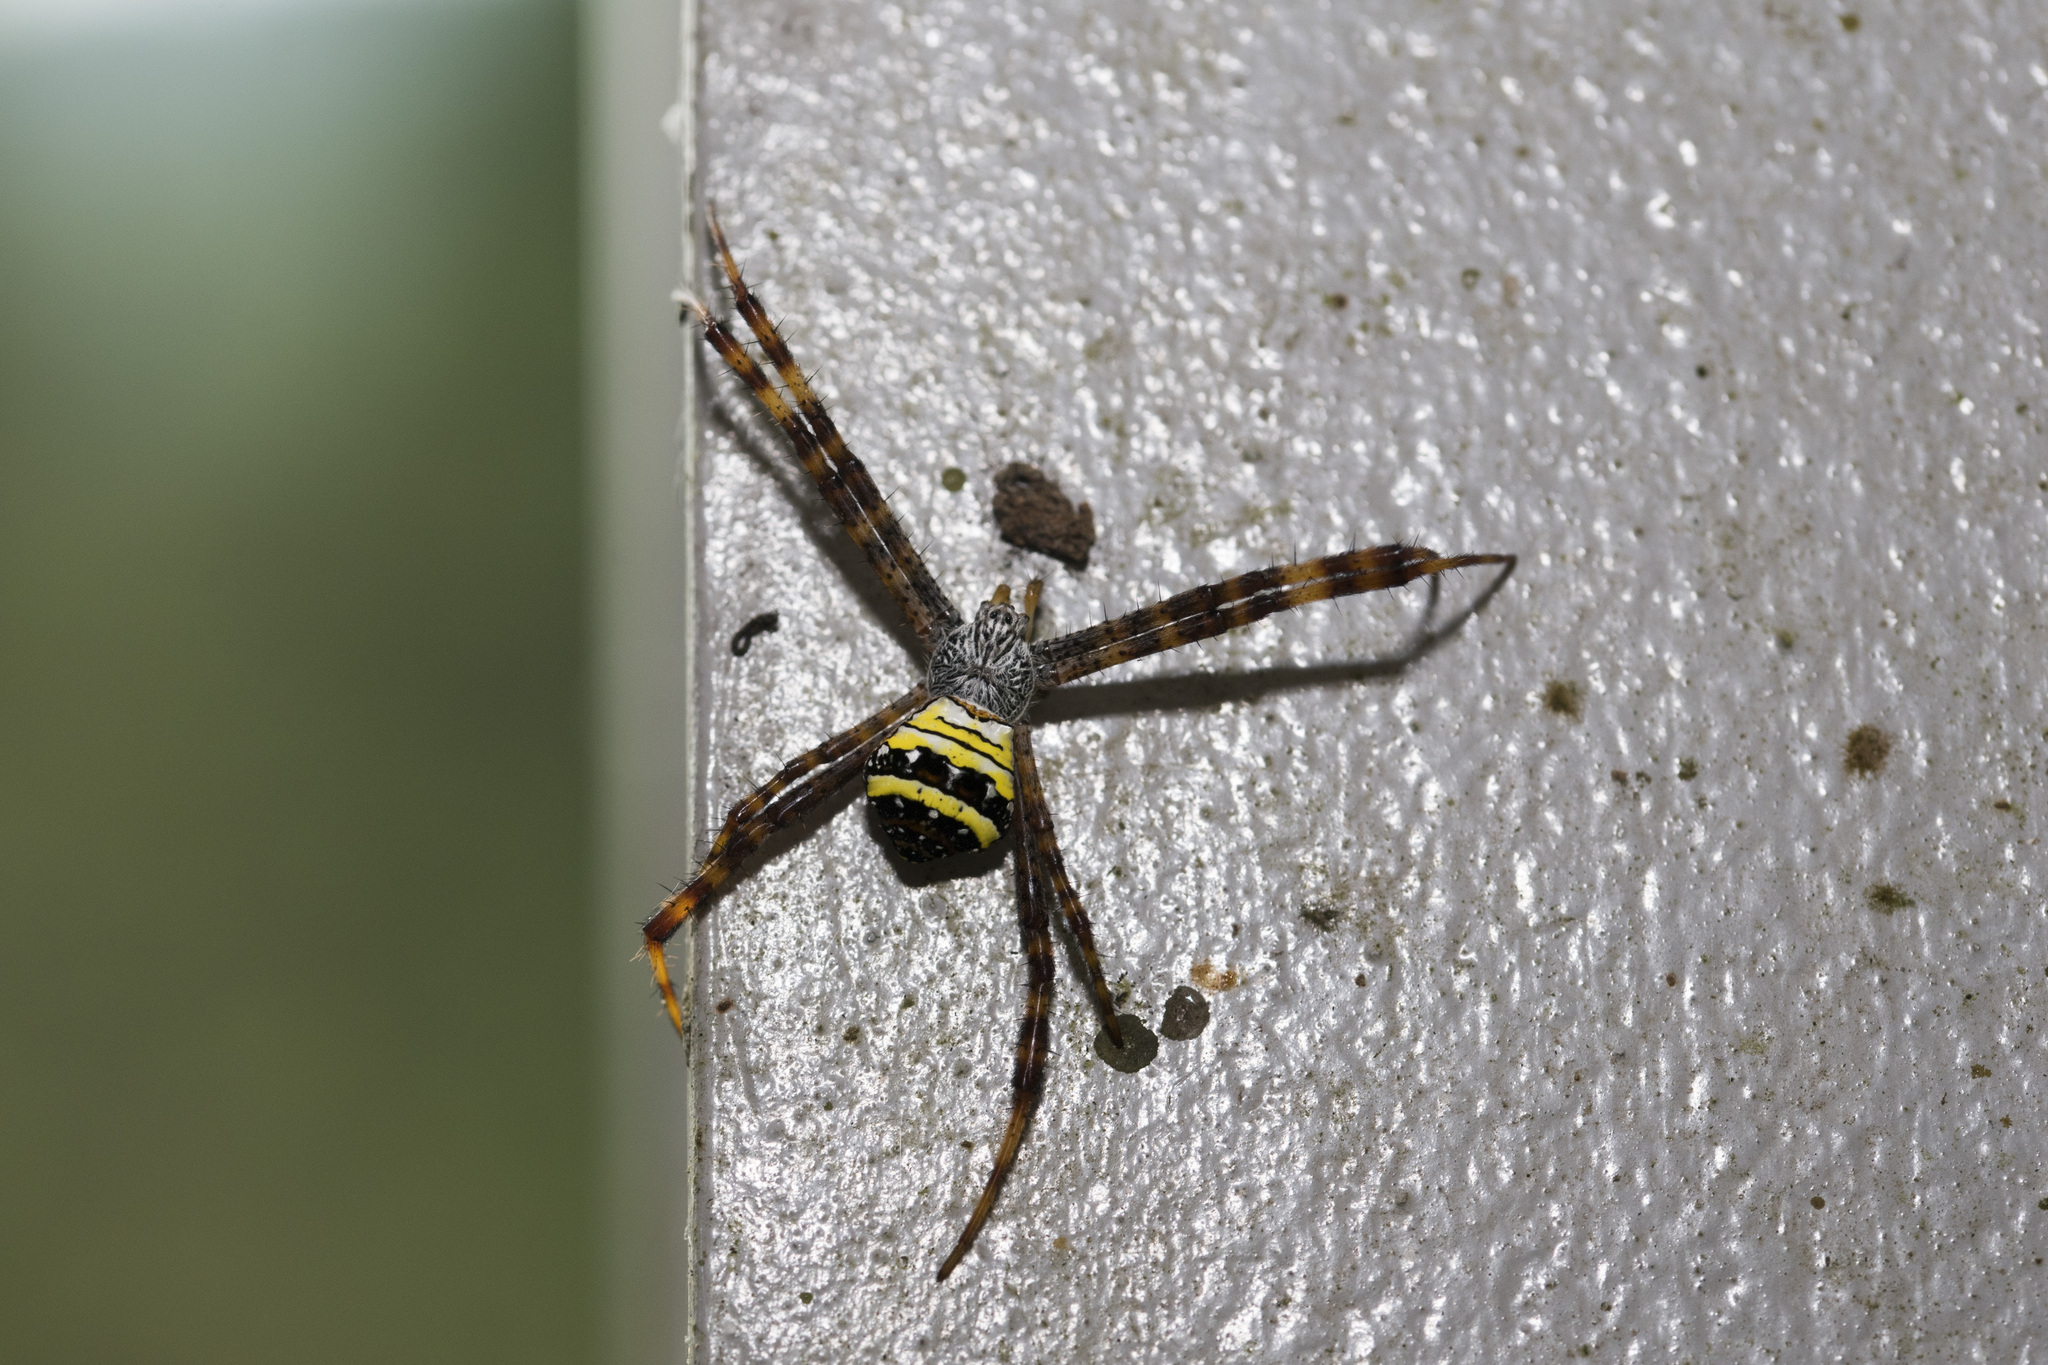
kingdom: Animalia
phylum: Arthropoda
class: Arachnida
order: Araneae
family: Araneidae
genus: Argiope
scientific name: Argiope aetheroides
